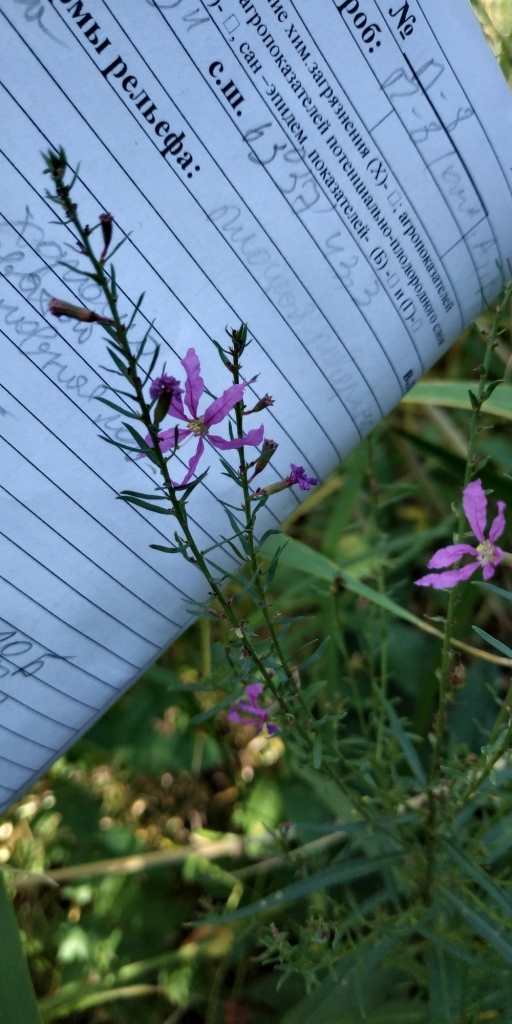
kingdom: Plantae
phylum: Tracheophyta
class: Magnoliopsida
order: Myrtales
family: Lythraceae
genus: Lythrum
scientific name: Lythrum virgatum
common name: European wand loosestrife
